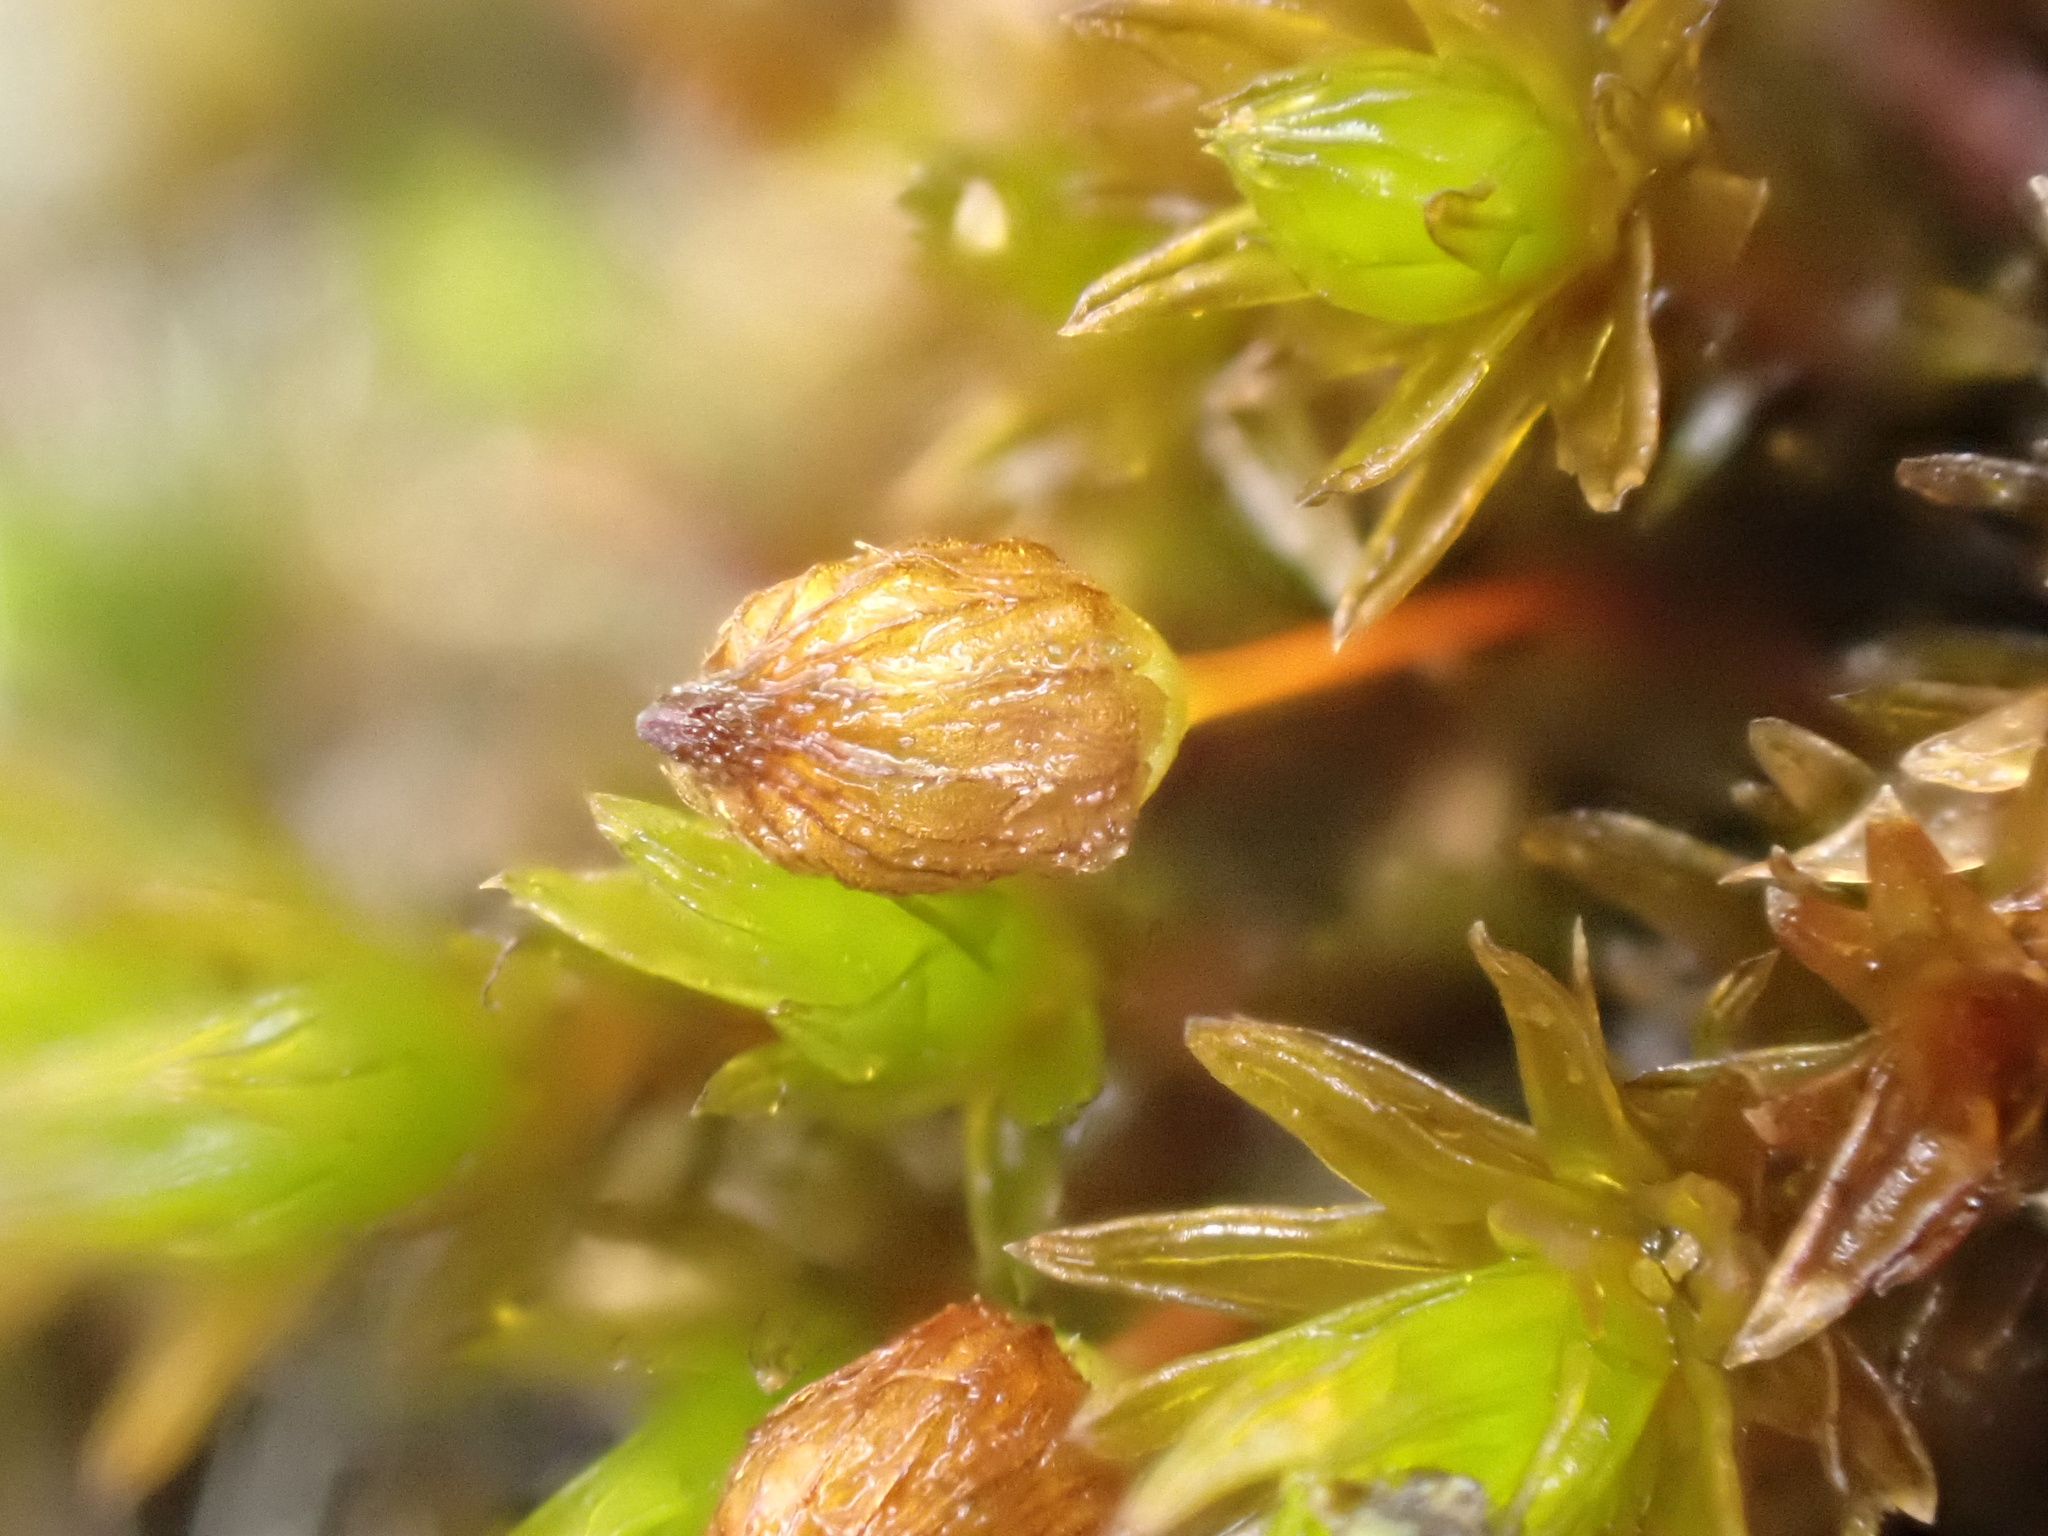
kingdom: Plantae
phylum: Bryophyta
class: Bryopsida
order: Orthotrichales
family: Orthotrichaceae
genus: Orthotrichum
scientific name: Orthotrichum anomalum
